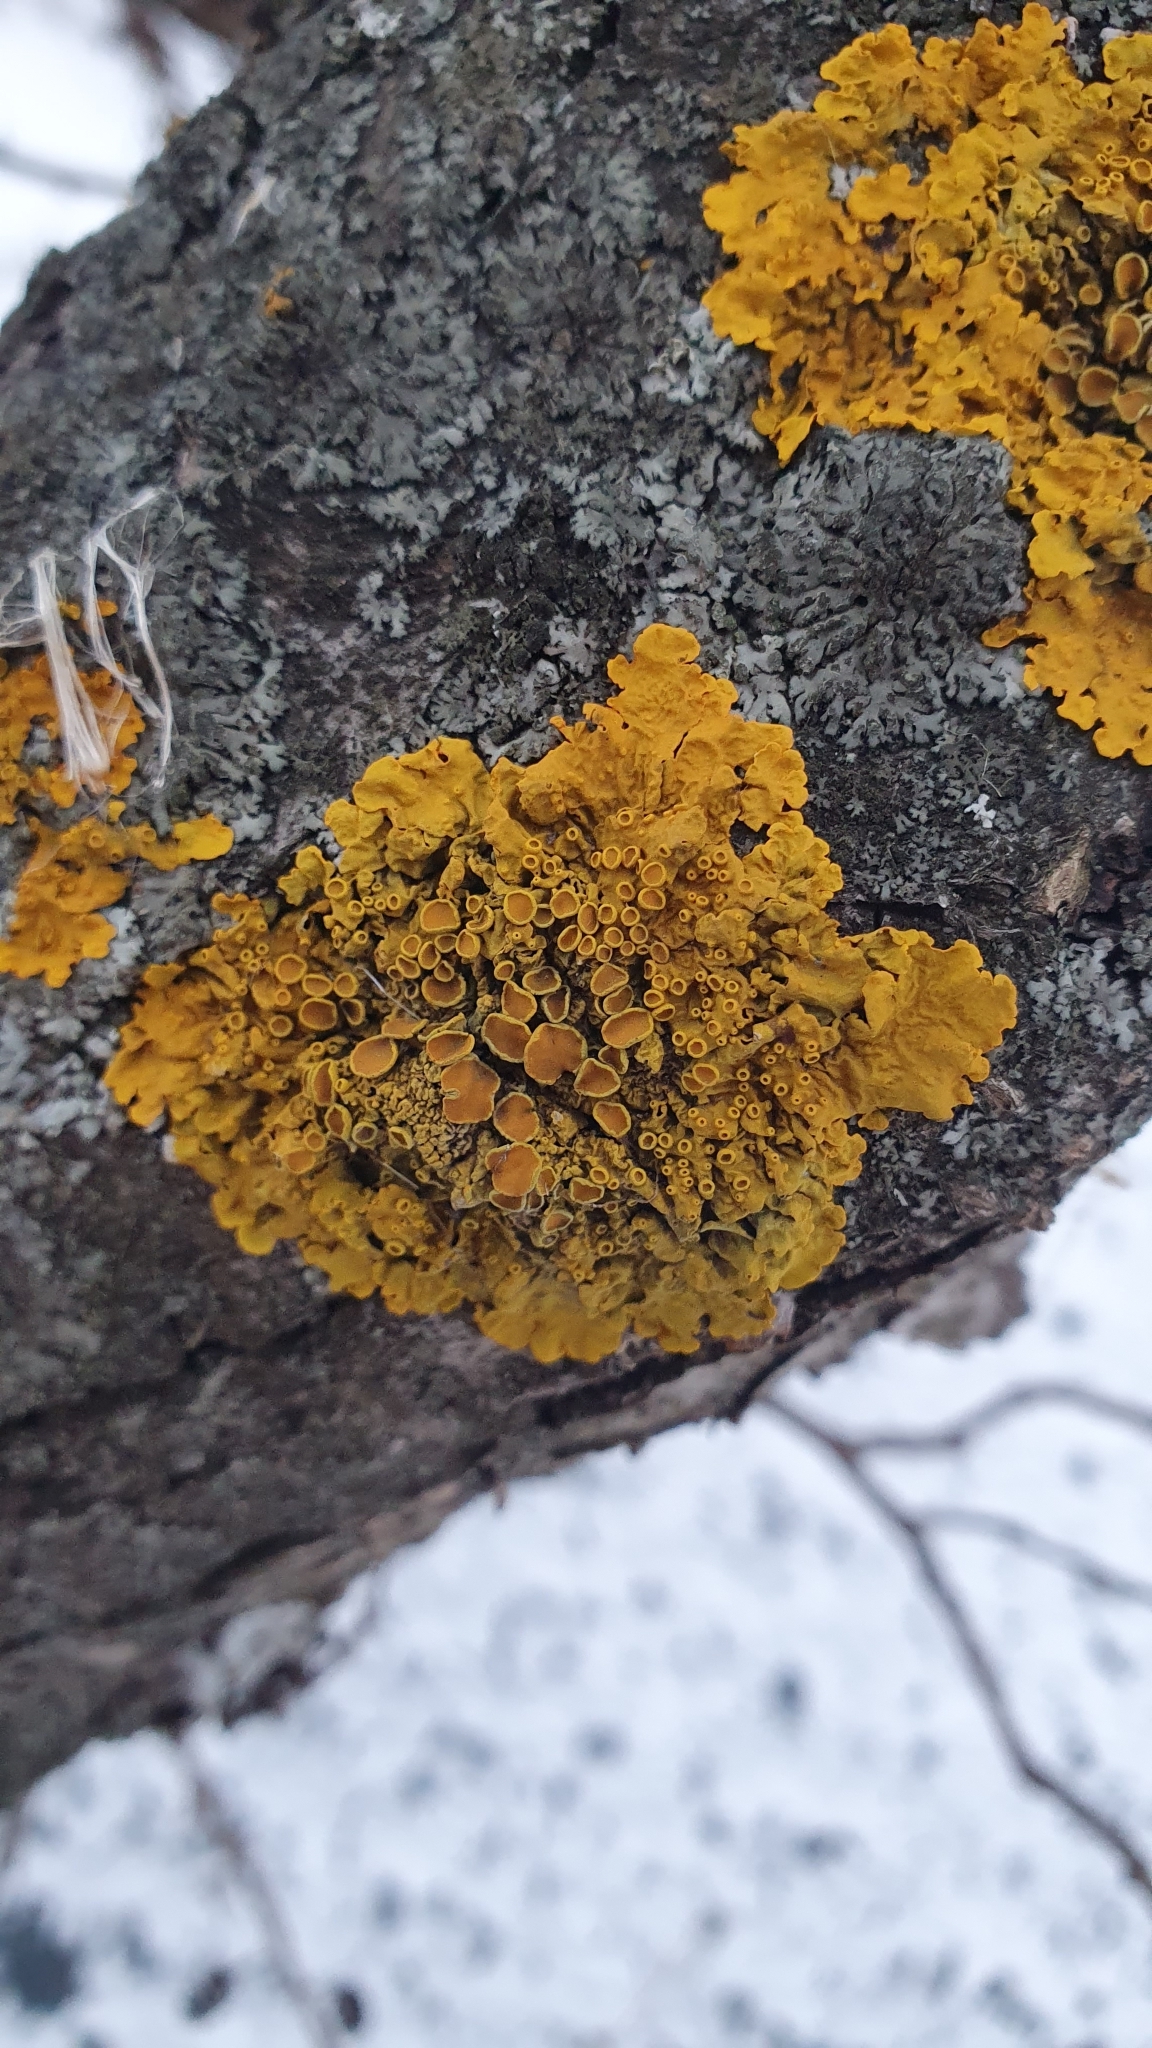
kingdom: Fungi
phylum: Ascomycota
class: Lecanoromycetes
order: Teloschistales
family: Teloschistaceae
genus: Xanthoria
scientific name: Xanthoria parietina
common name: Common orange lichen
